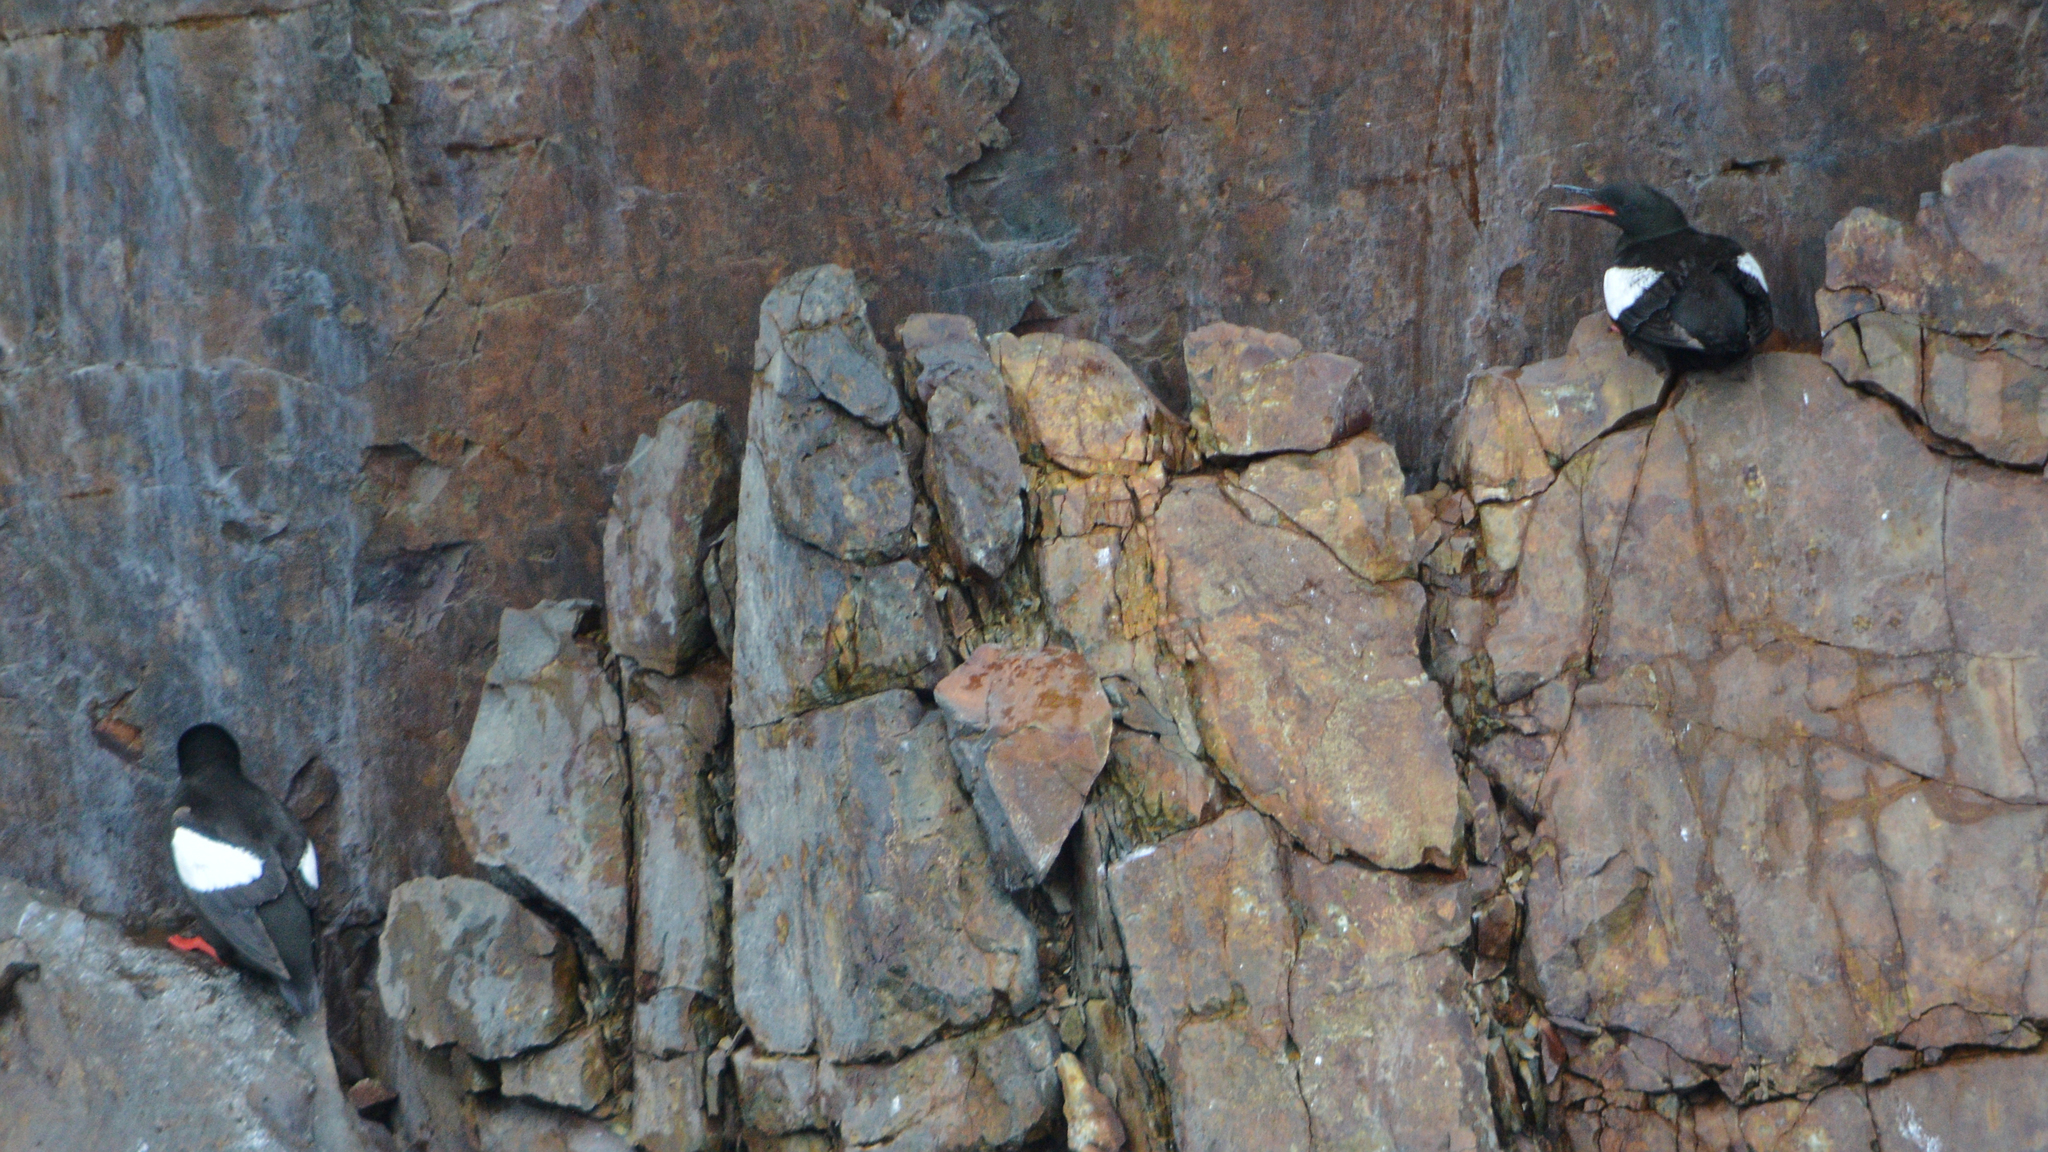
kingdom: Animalia
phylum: Chordata
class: Aves
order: Charadriiformes
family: Alcidae
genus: Cepphus
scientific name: Cepphus grylle
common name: Black guillemot
